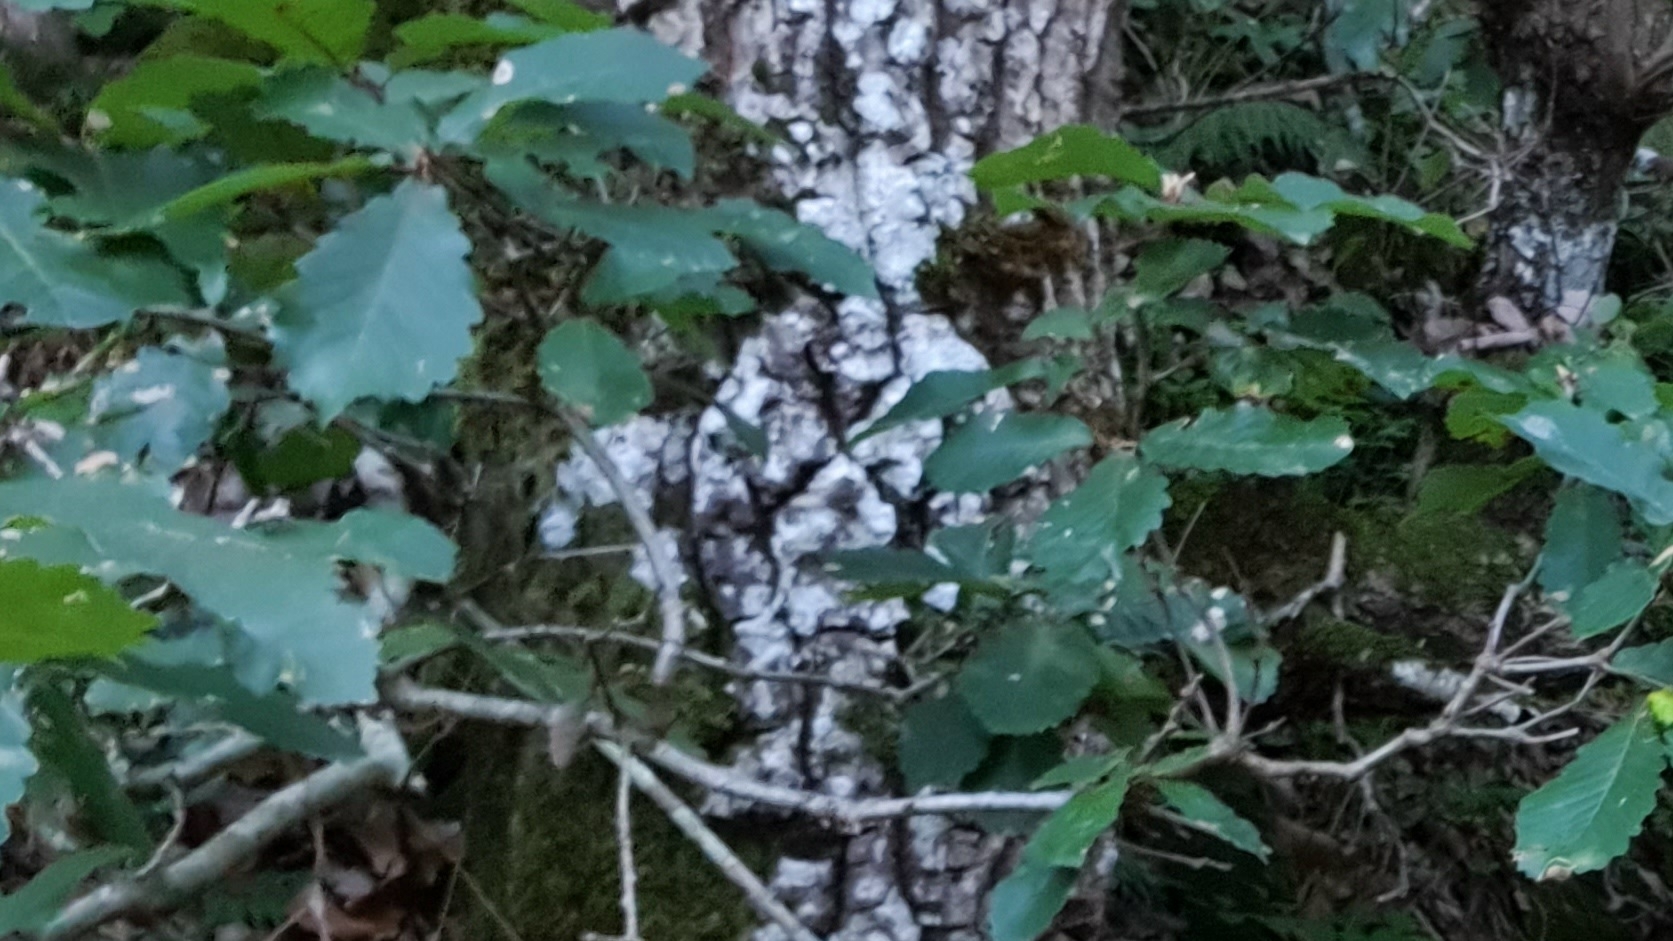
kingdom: Plantae
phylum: Tracheophyta
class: Magnoliopsida
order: Fagales
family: Fagaceae
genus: Quercus
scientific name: Quercus canariensis
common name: Algerian oak
